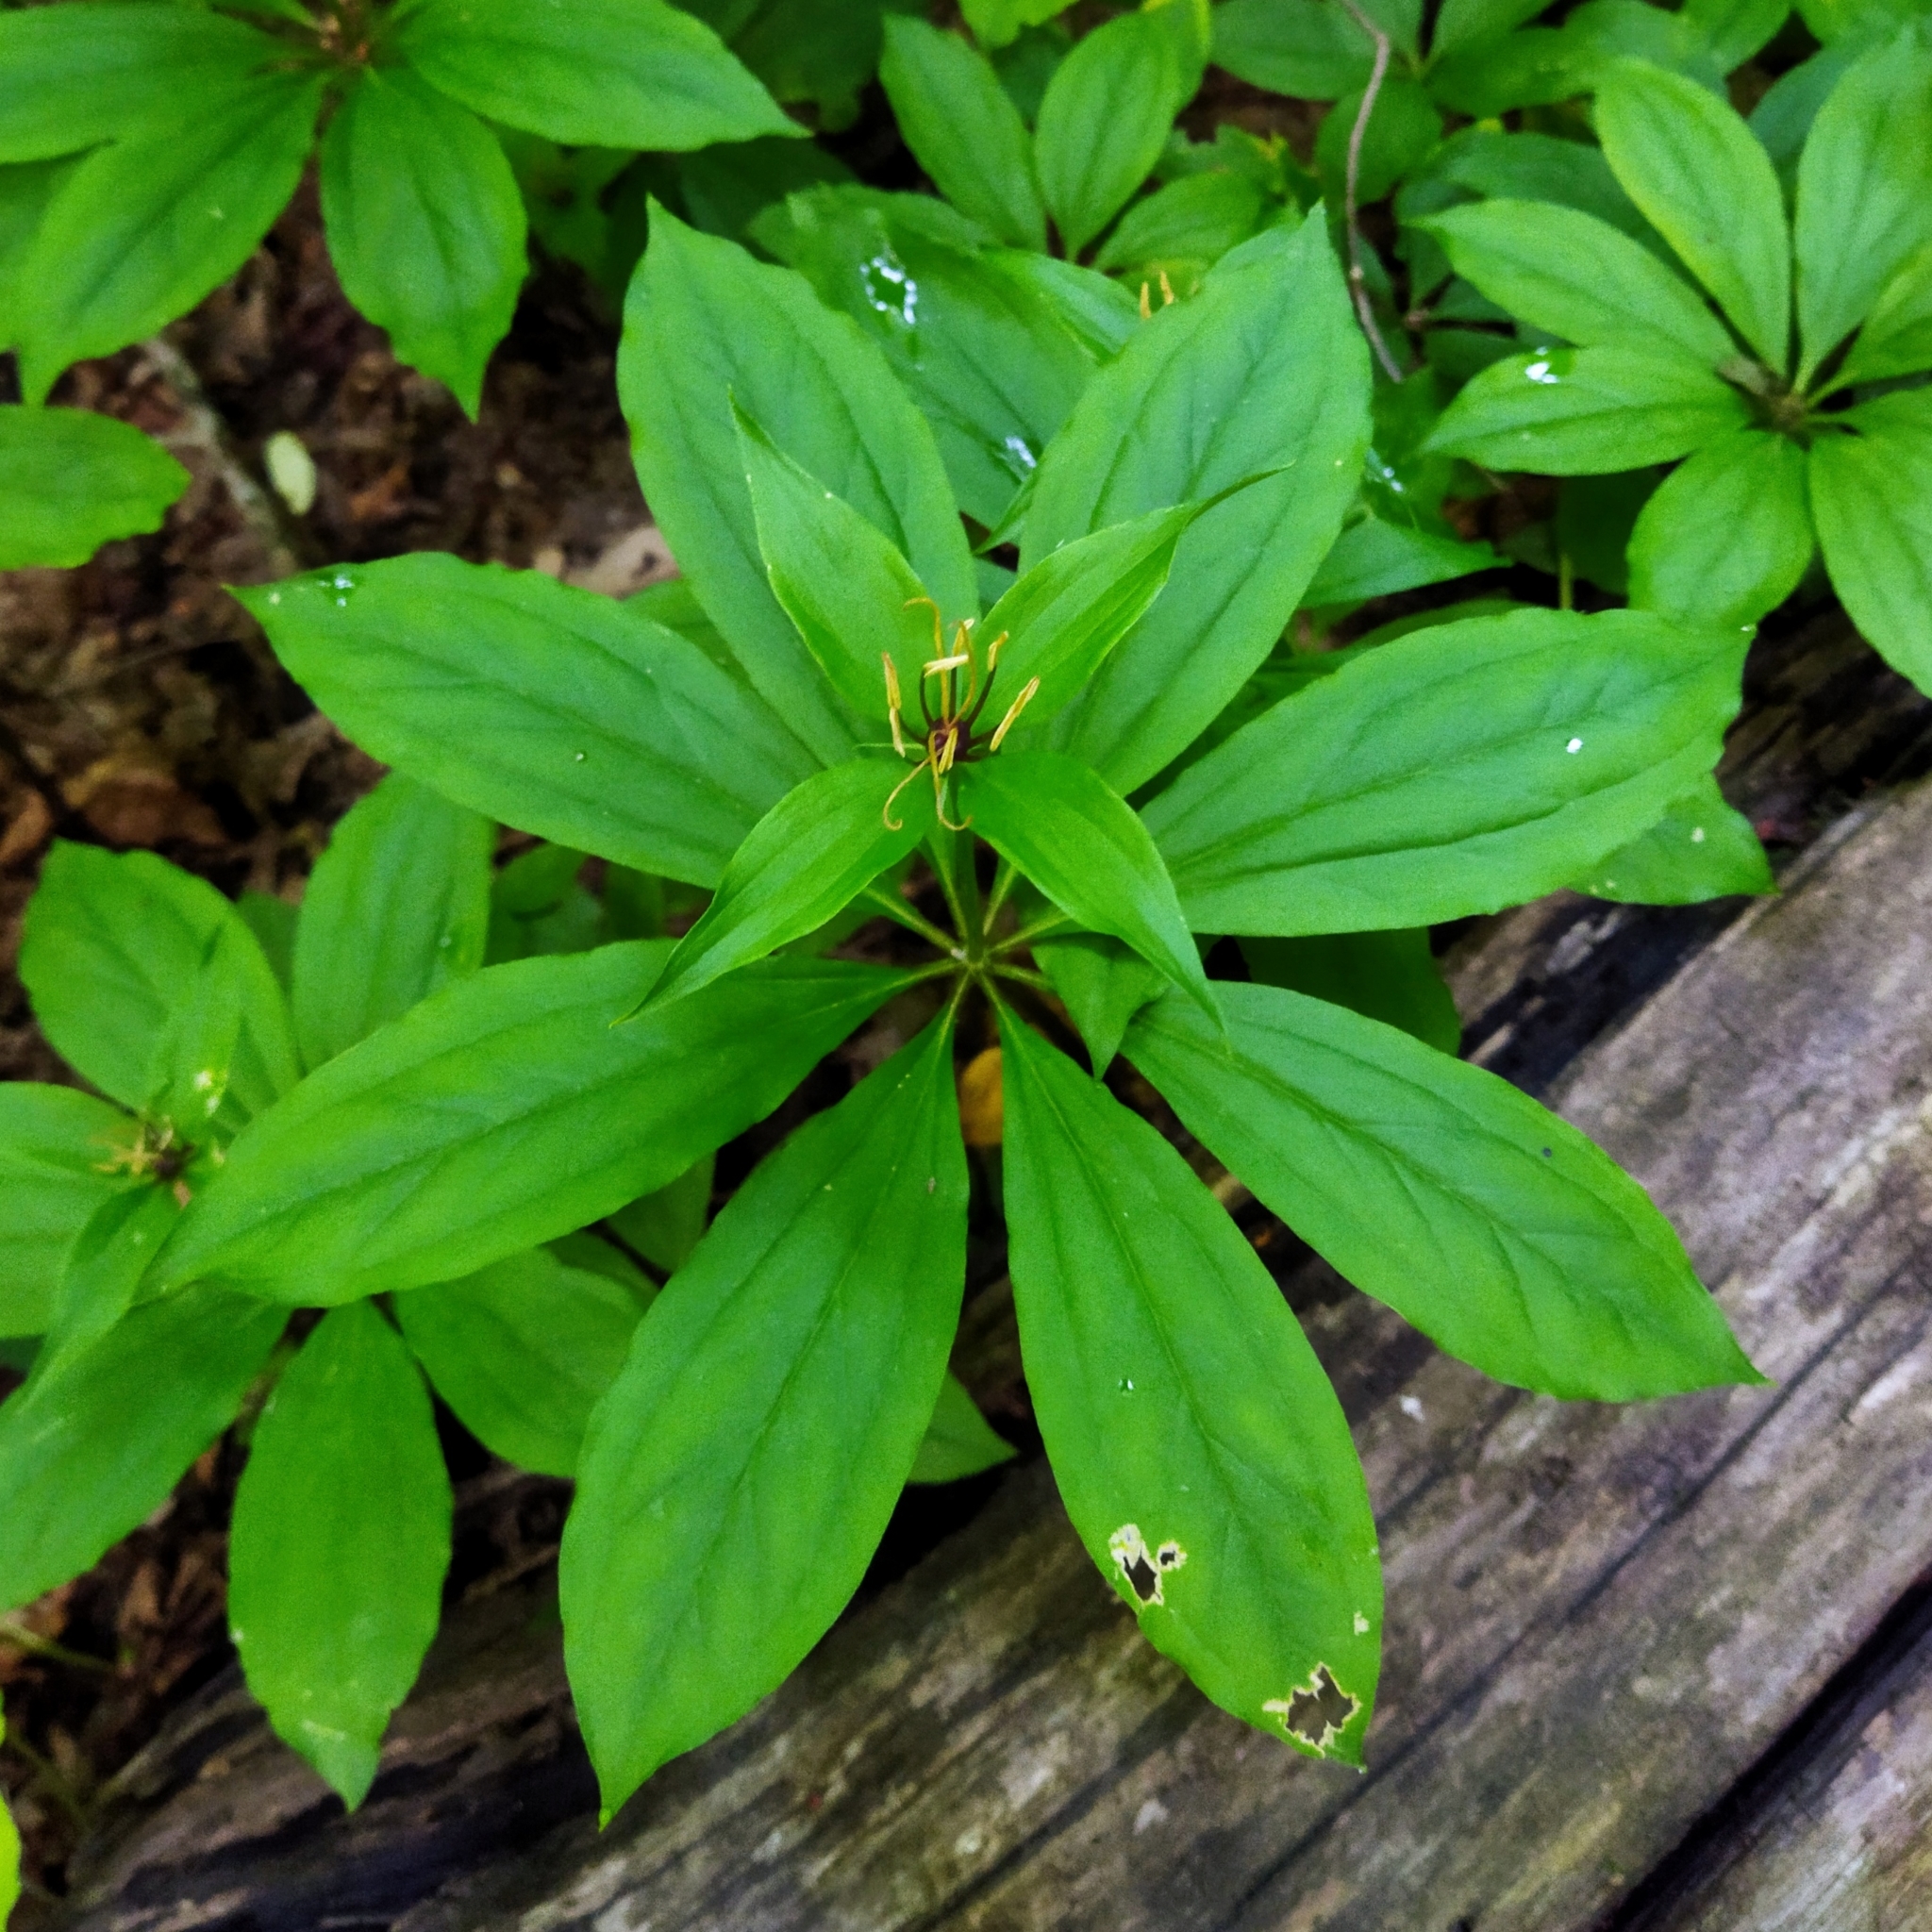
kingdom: Plantae
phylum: Tracheophyta
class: Liliopsida
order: Liliales
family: Melanthiaceae
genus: Paris
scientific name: Paris incompleta
